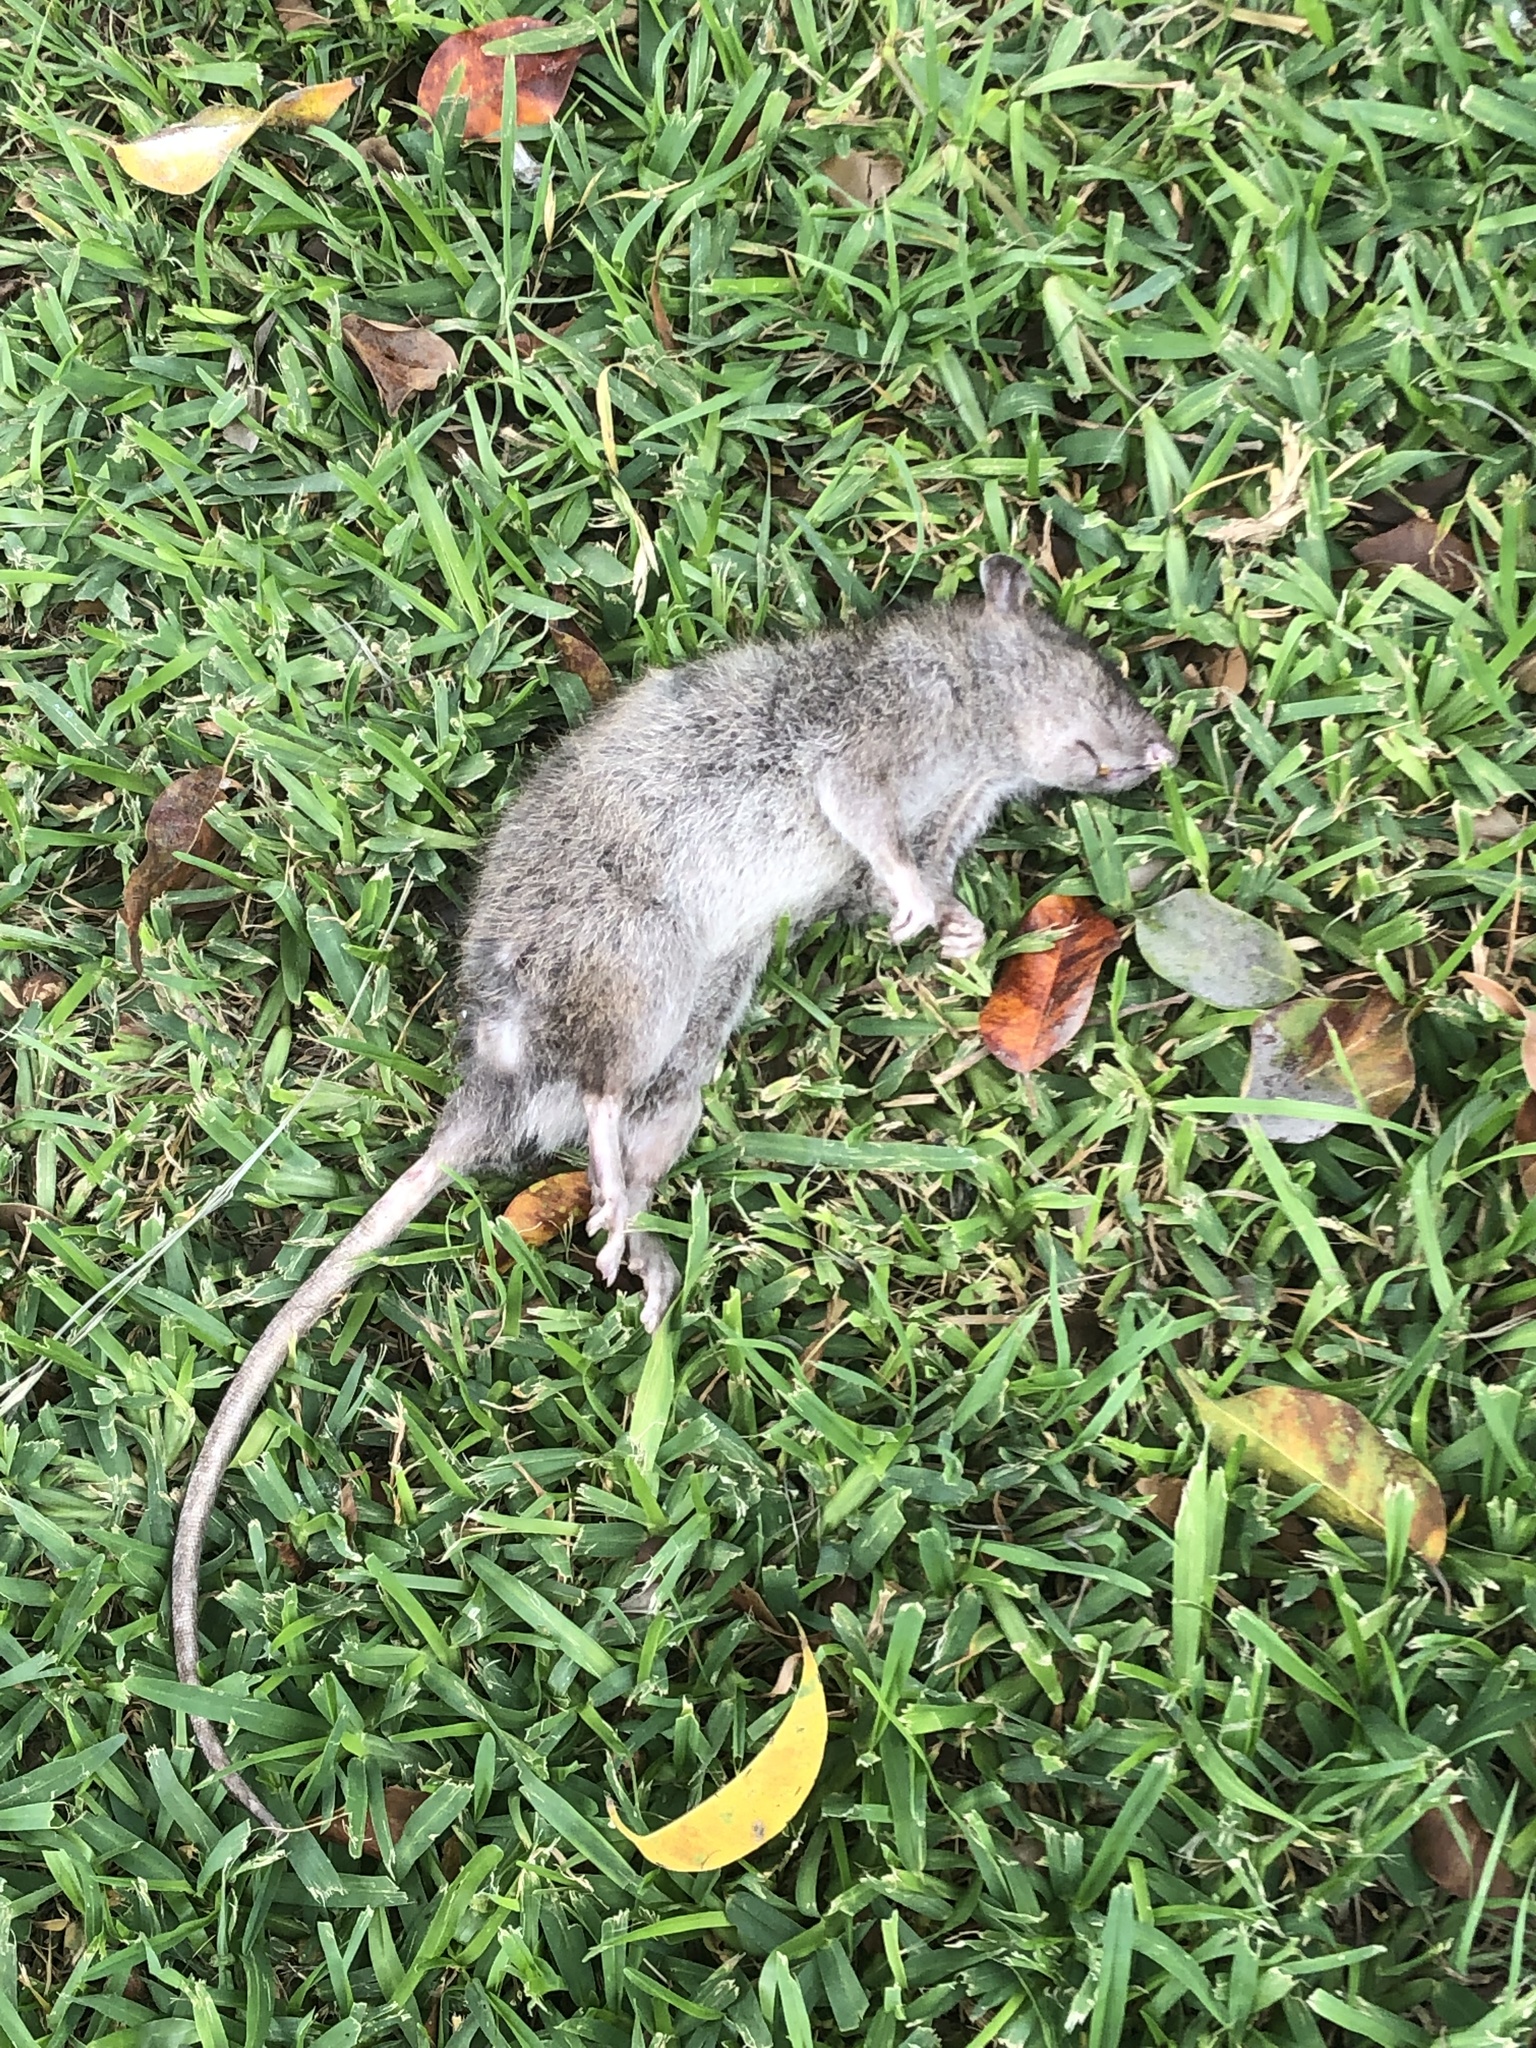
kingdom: Animalia
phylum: Chordata
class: Mammalia
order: Rodentia
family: Muridae
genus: Rattus
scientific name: Rattus norvegicus
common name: Brown rat
